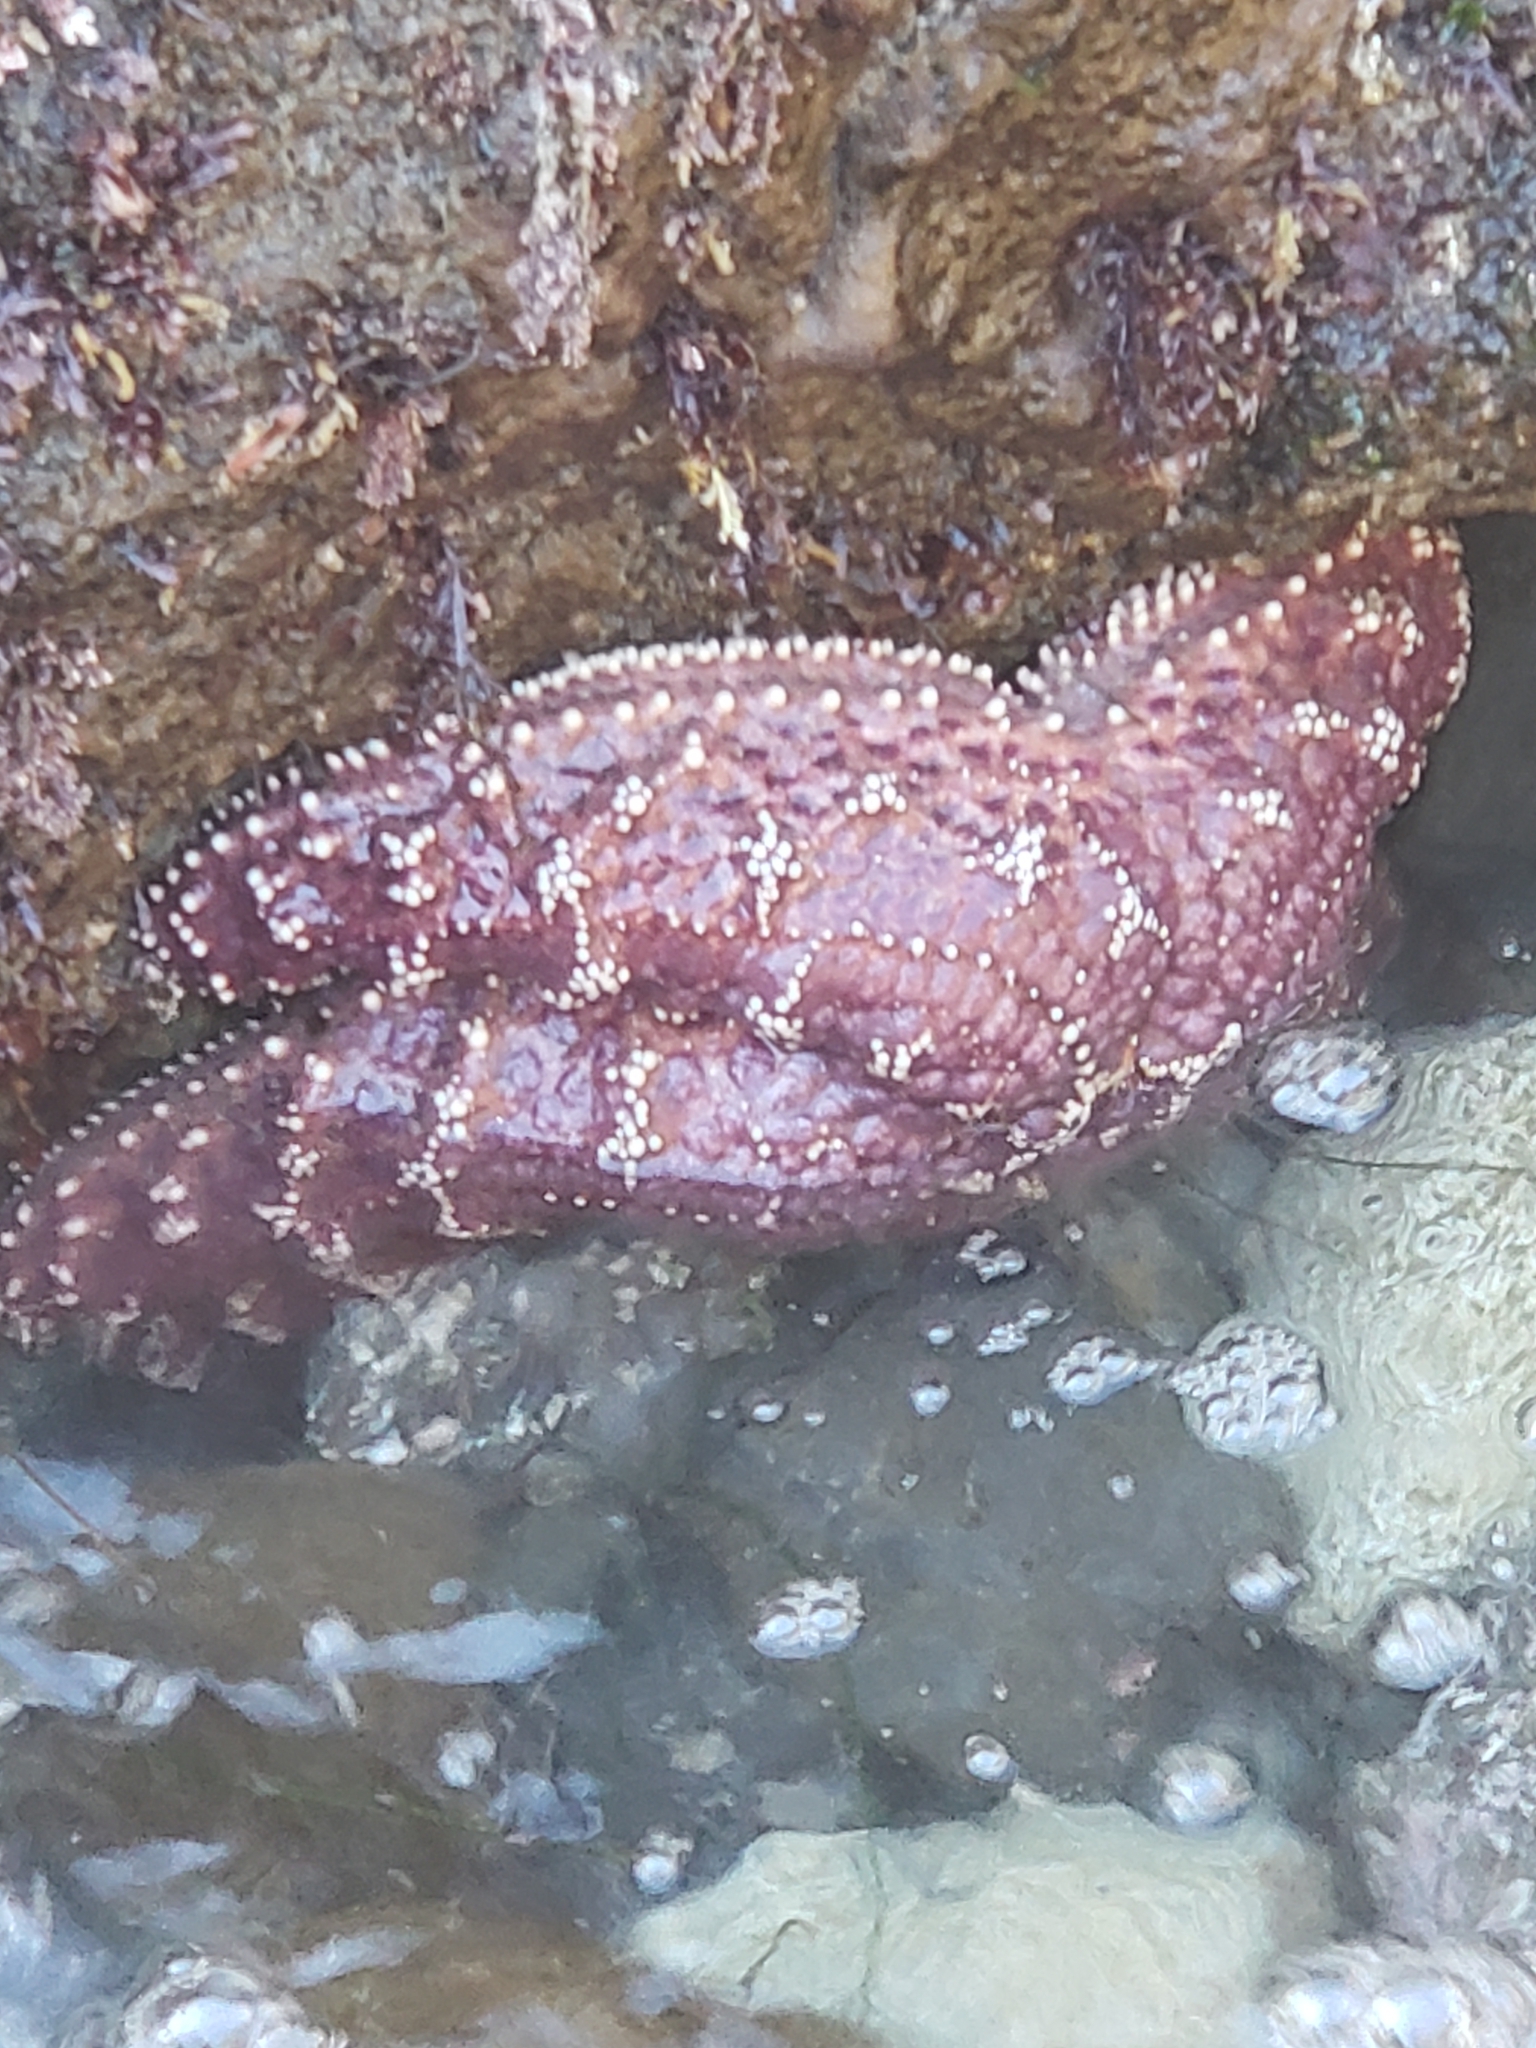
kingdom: Animalia
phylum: Echinodermata
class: Asteroidea
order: Forcipulatida
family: Asteriidae
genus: Pisaster
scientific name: Pisaster ochraceus
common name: Ochre stars
